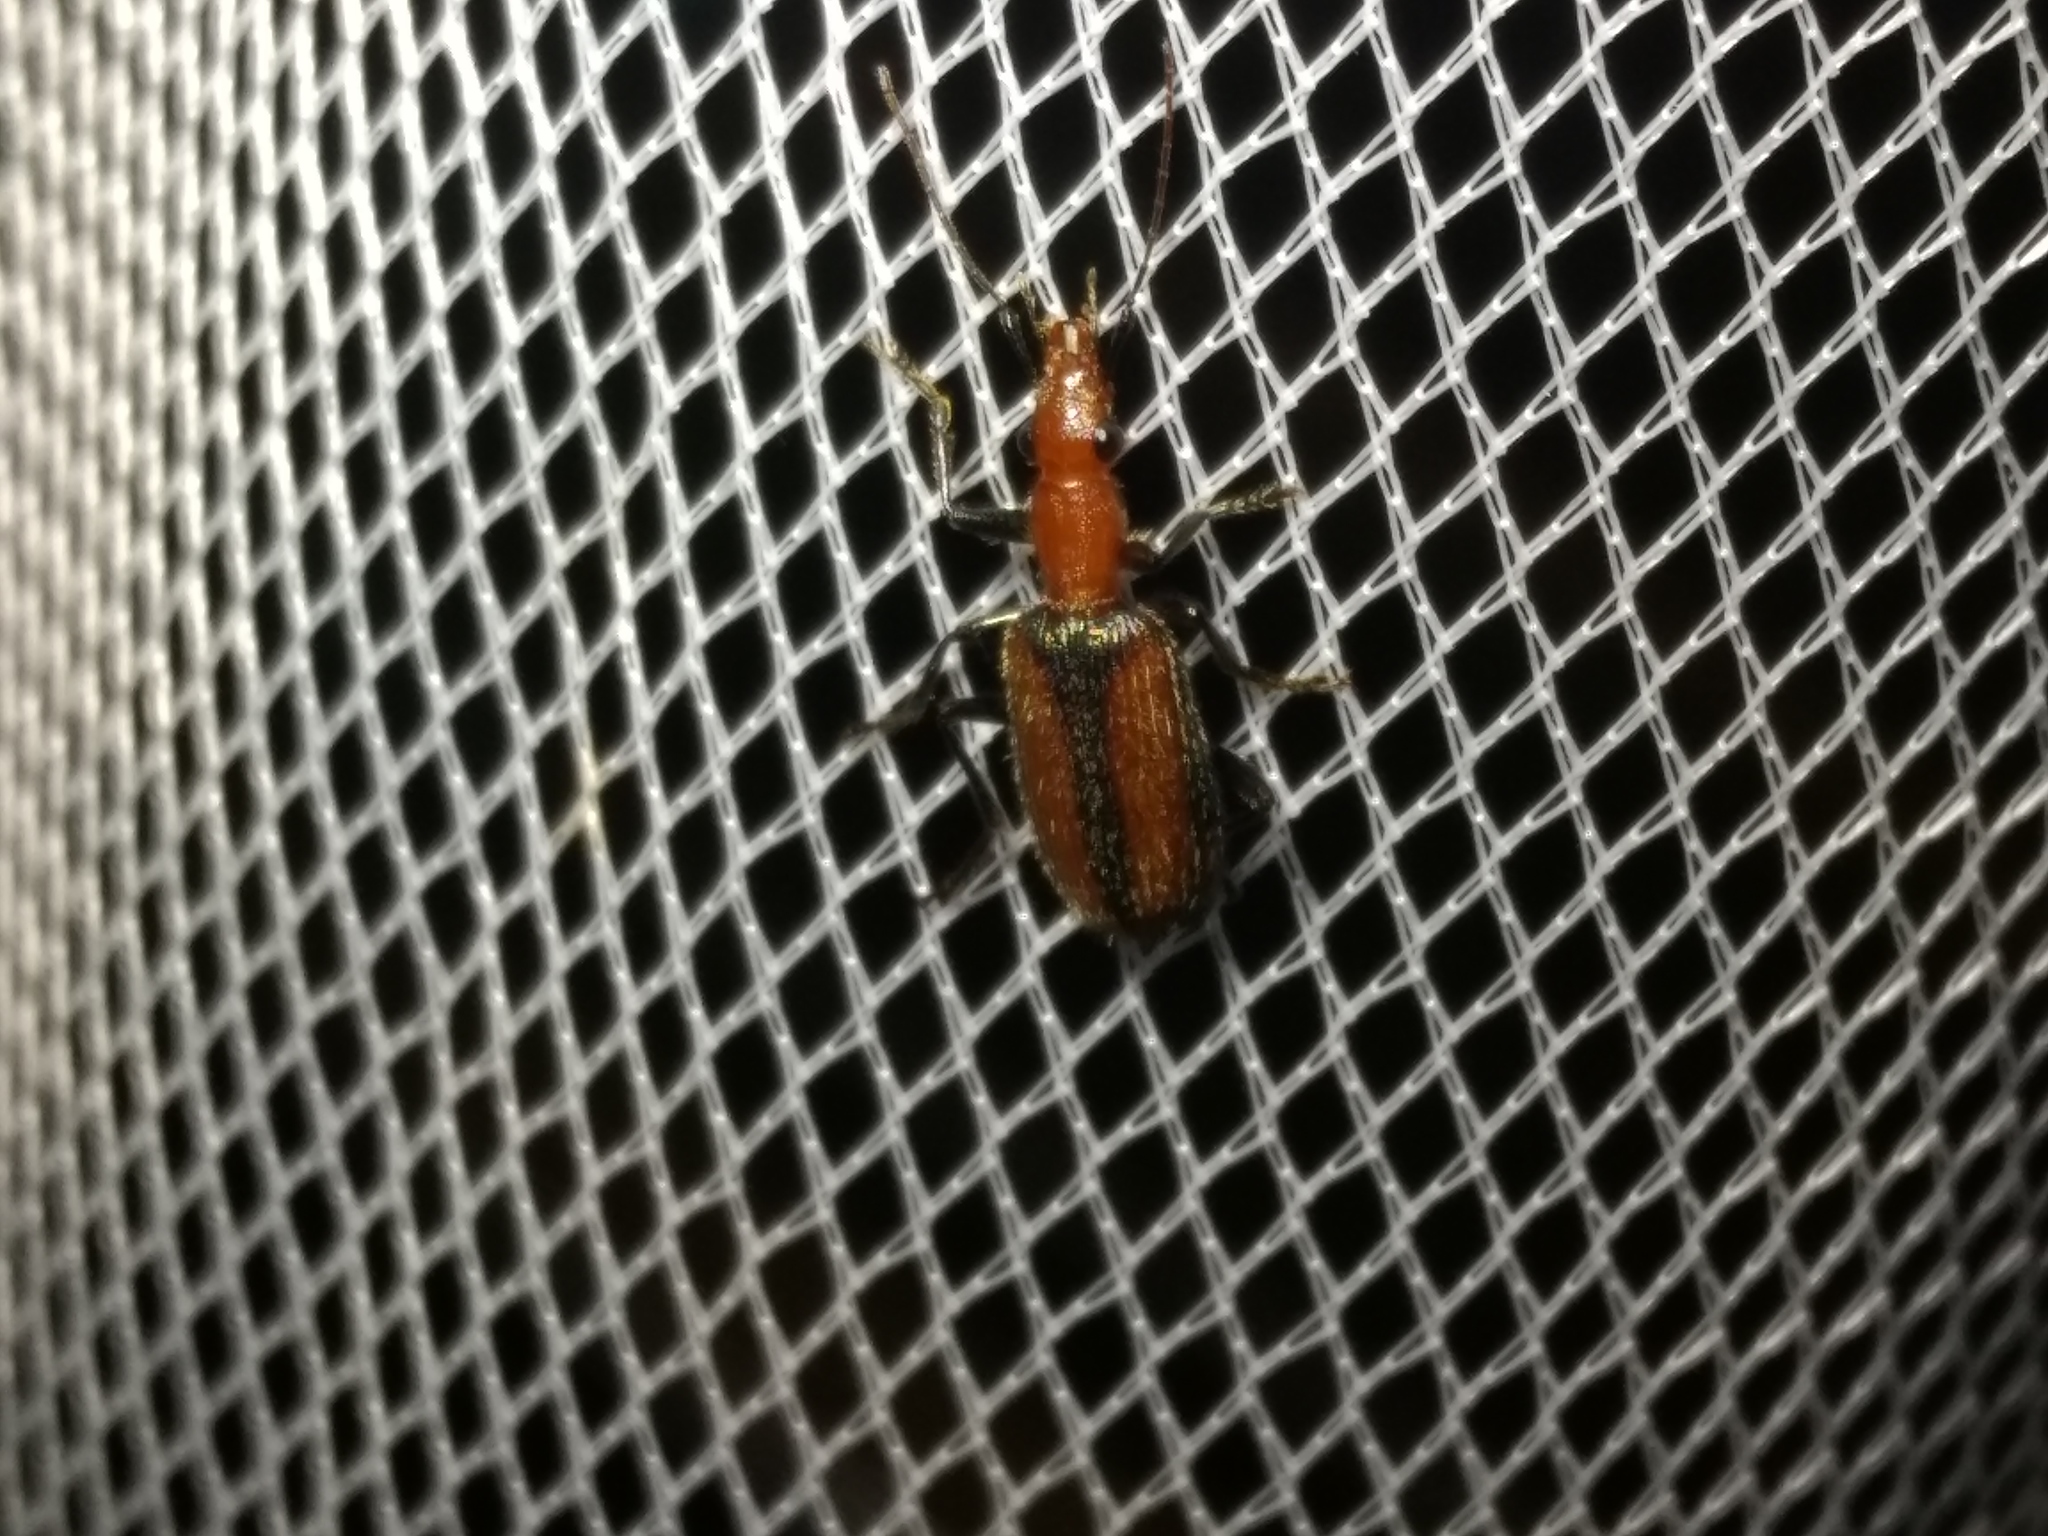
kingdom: Animalia
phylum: Arthropoda
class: Insecta
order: Coleoptera
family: Carabidae
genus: Drypta
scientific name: Drypta australis
